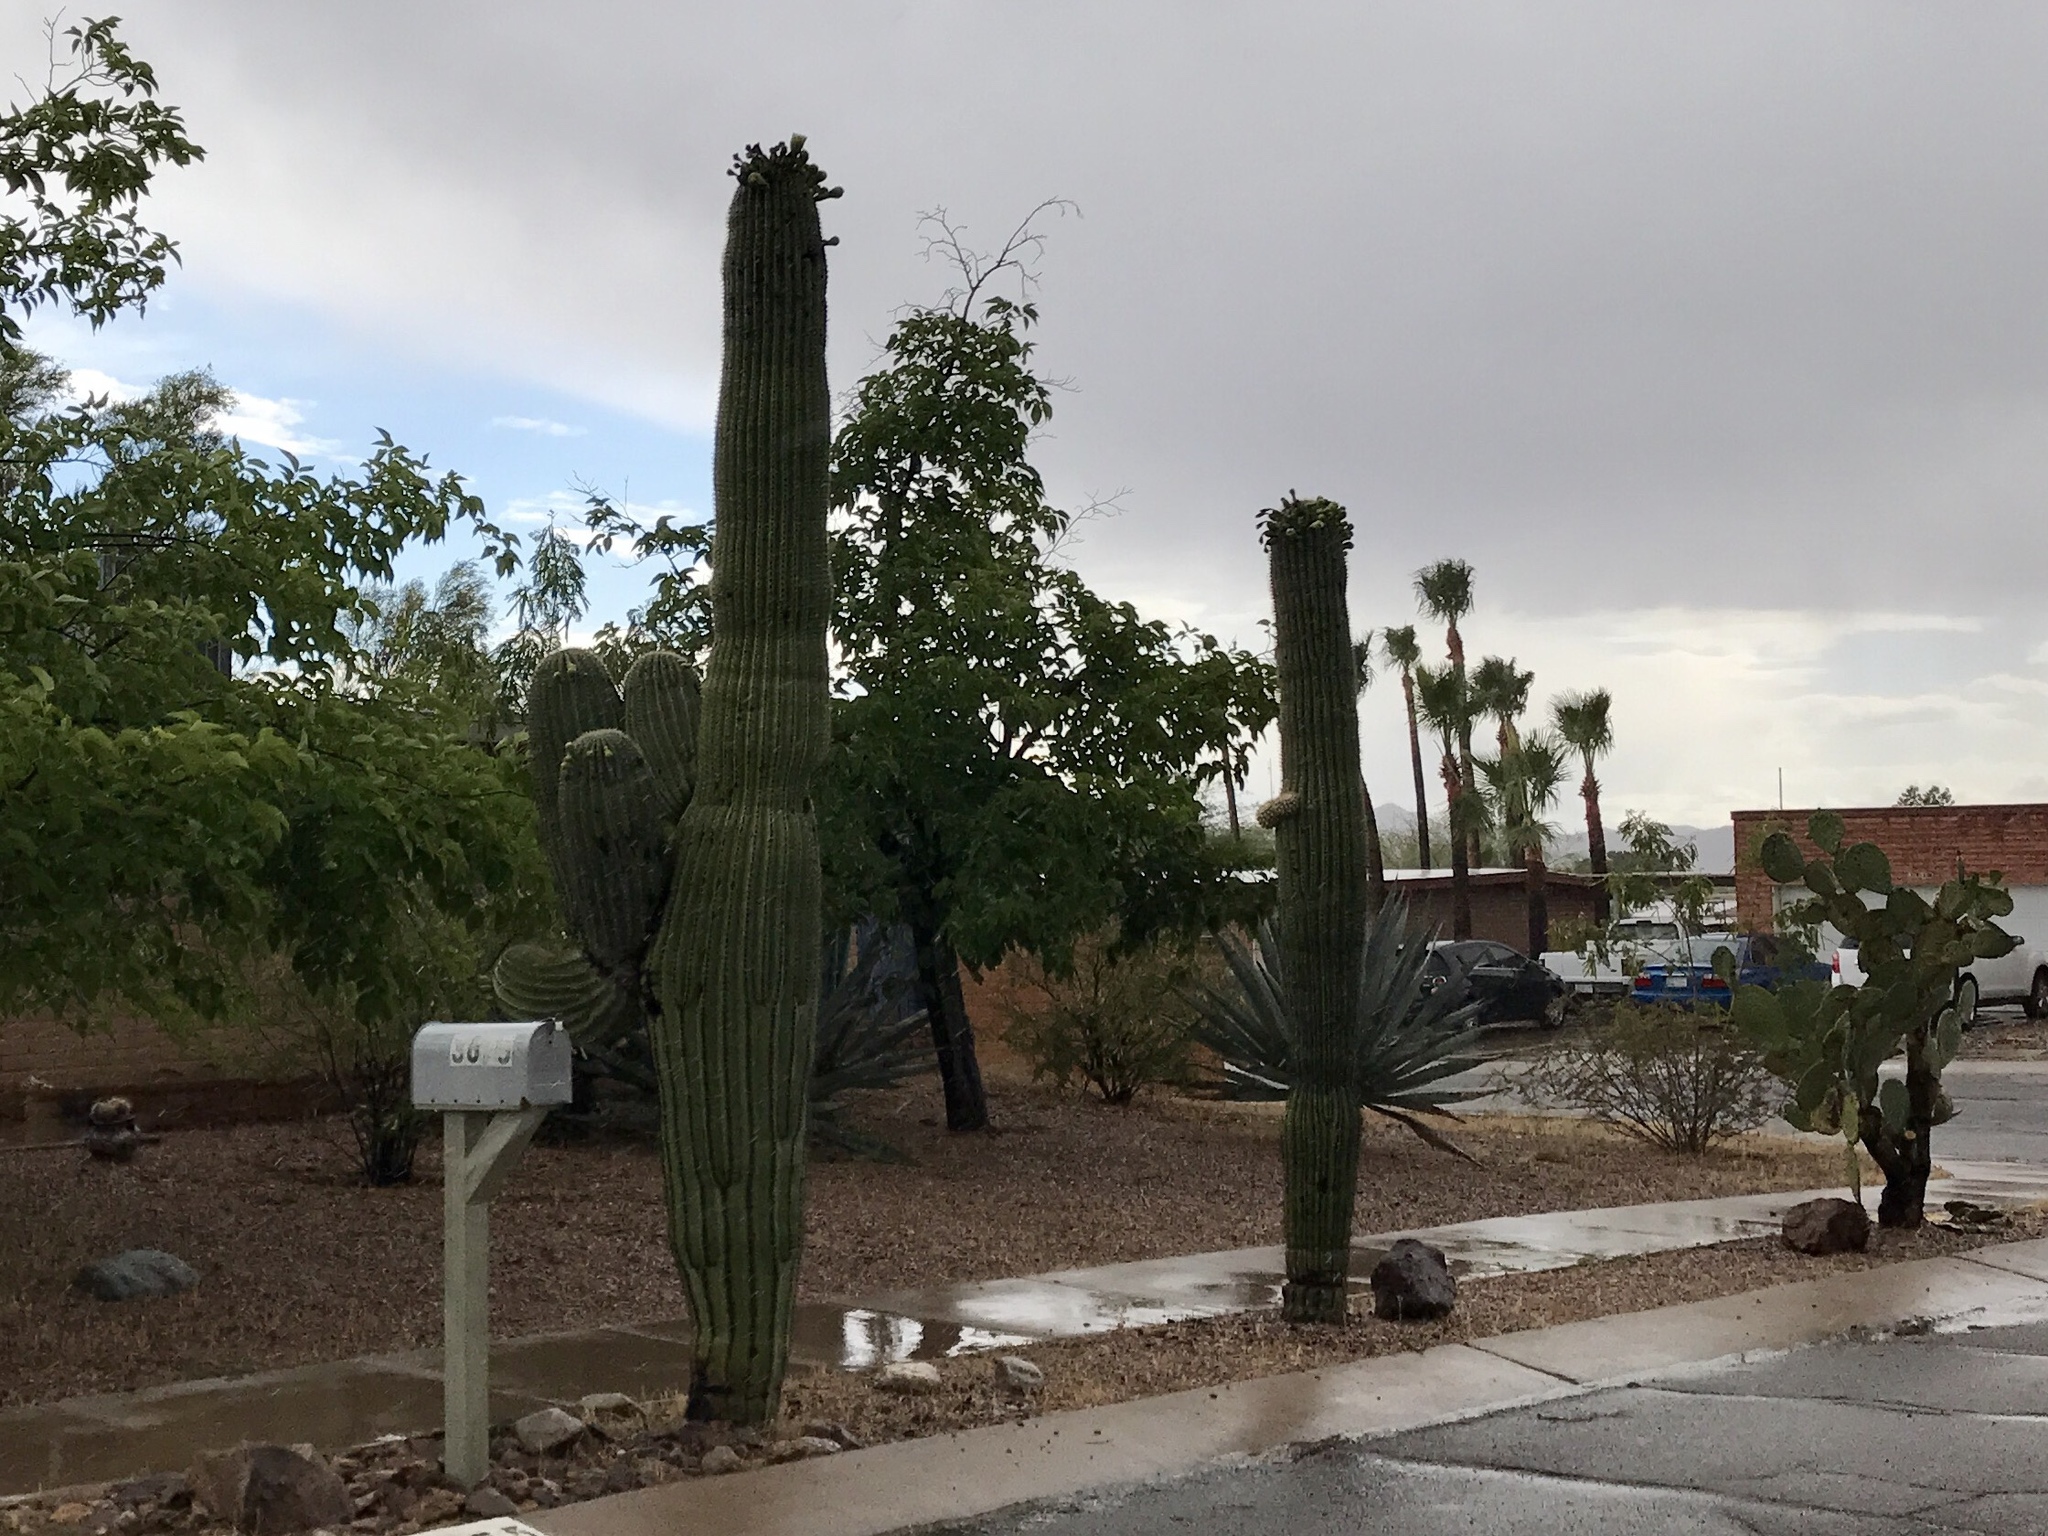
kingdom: Plantae
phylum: Tracheophyta
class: Magnoliopsida
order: Caryophyllales
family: Cactaceae
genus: Carnegiea
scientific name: Carnegiea gigantea
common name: Saguaro
